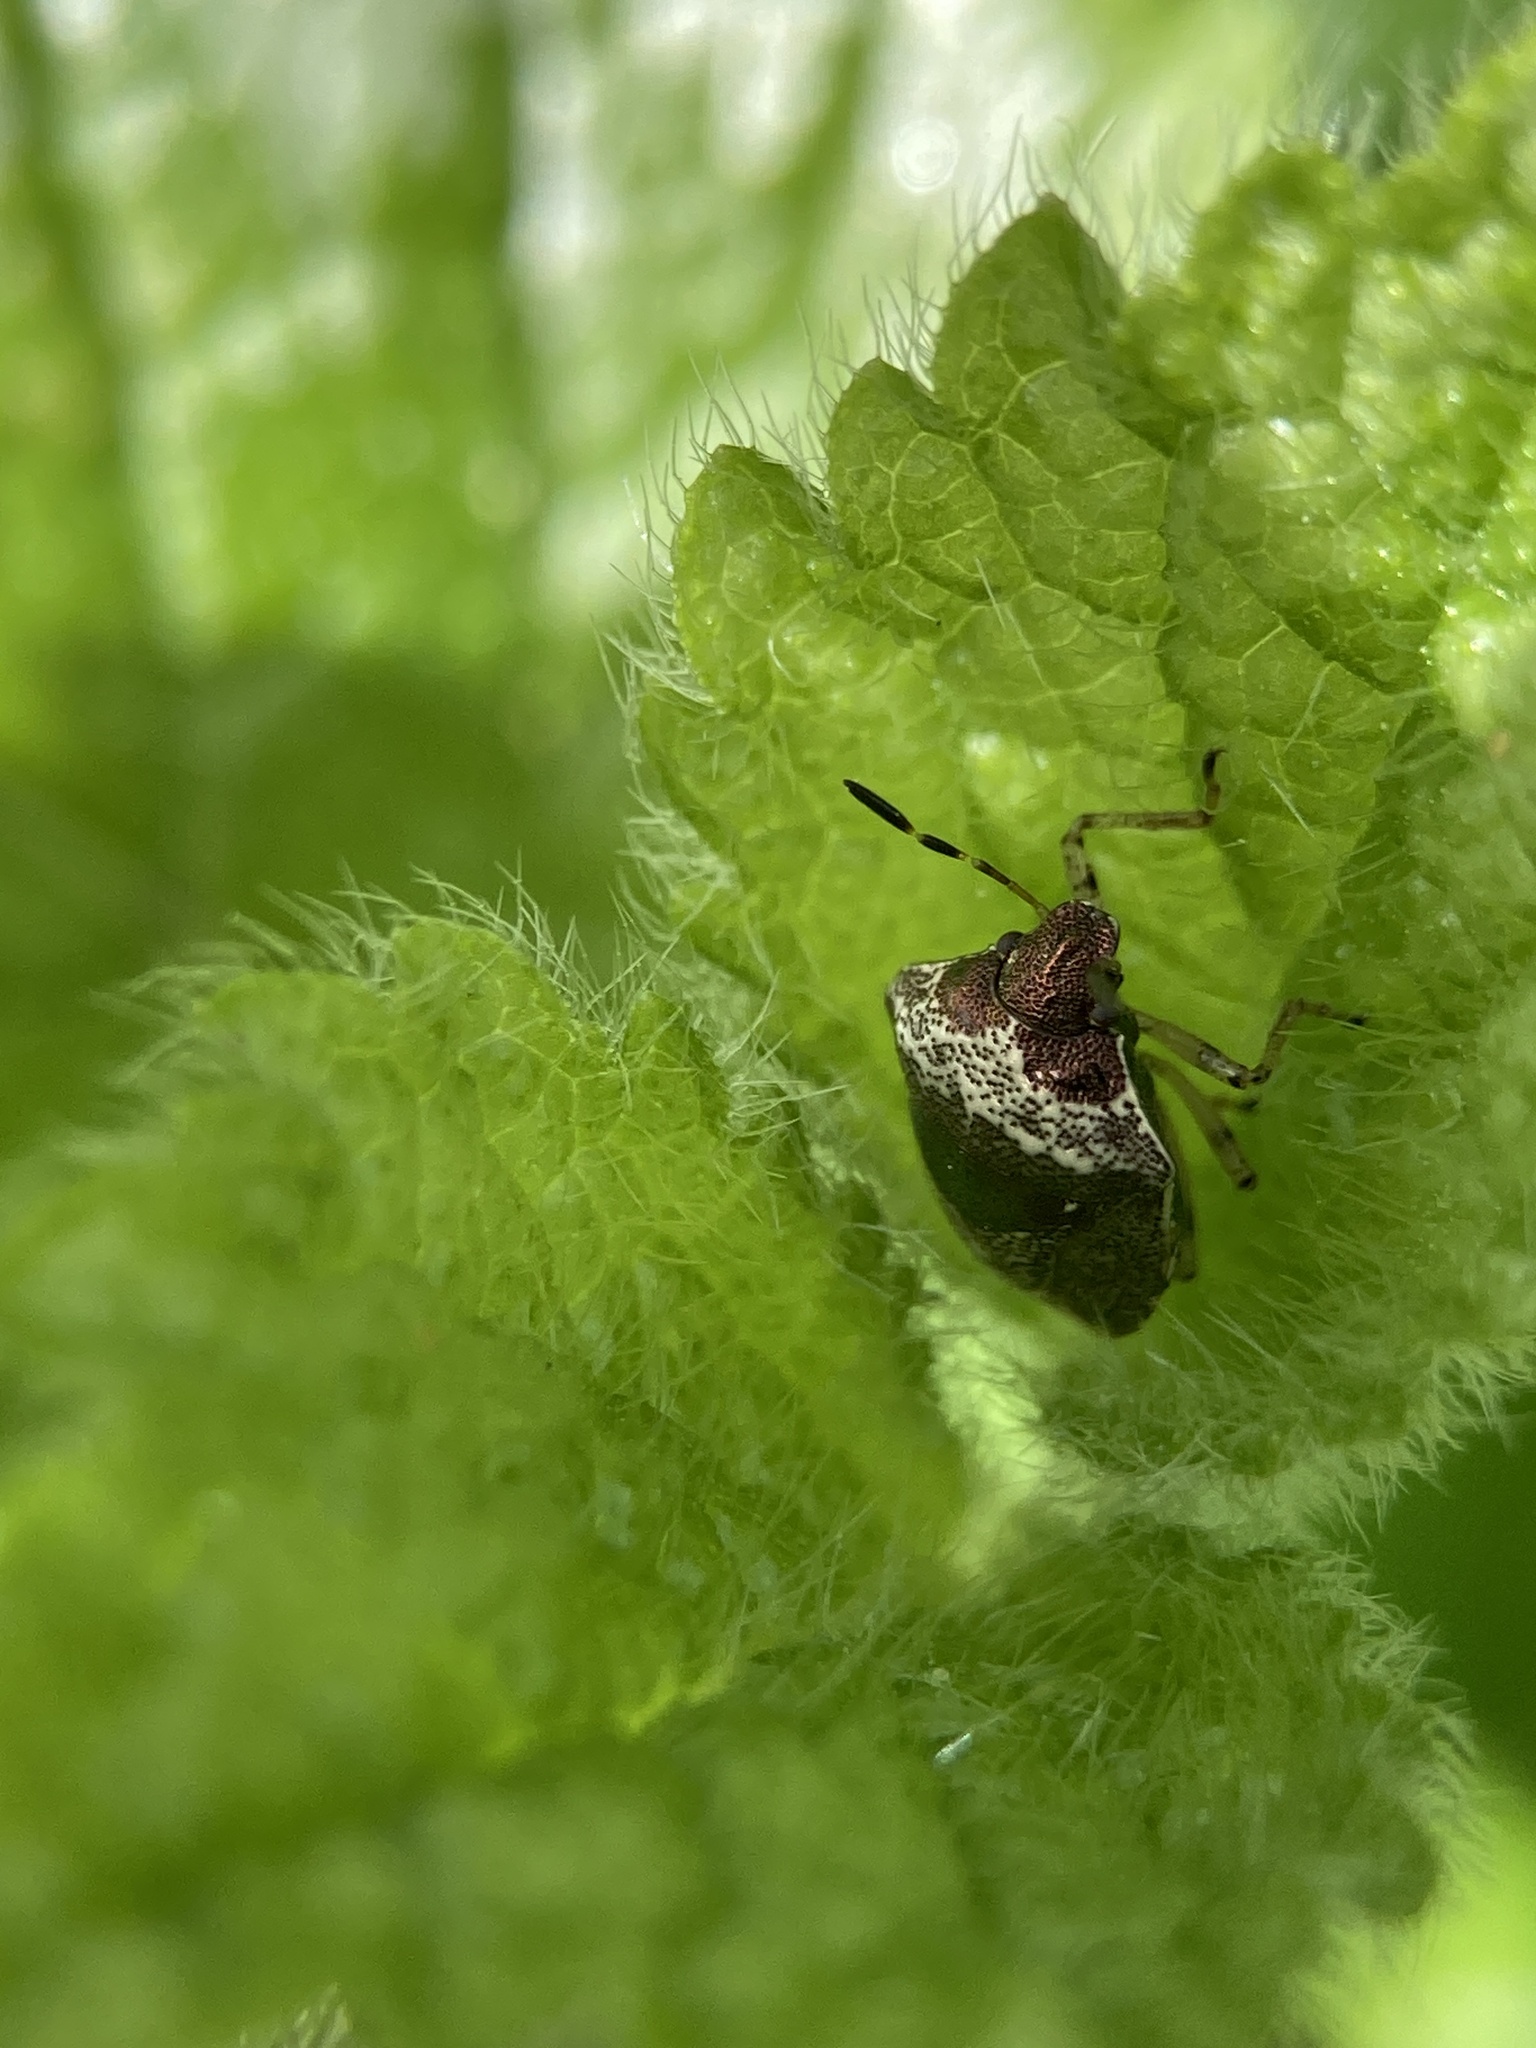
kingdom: Animalia
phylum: Arthropoda
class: Insecta
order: Hemiptera
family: Pentatomidae
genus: Eysarcoris
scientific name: Eysarcoris venustissimus
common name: Woundwort shieldbug
